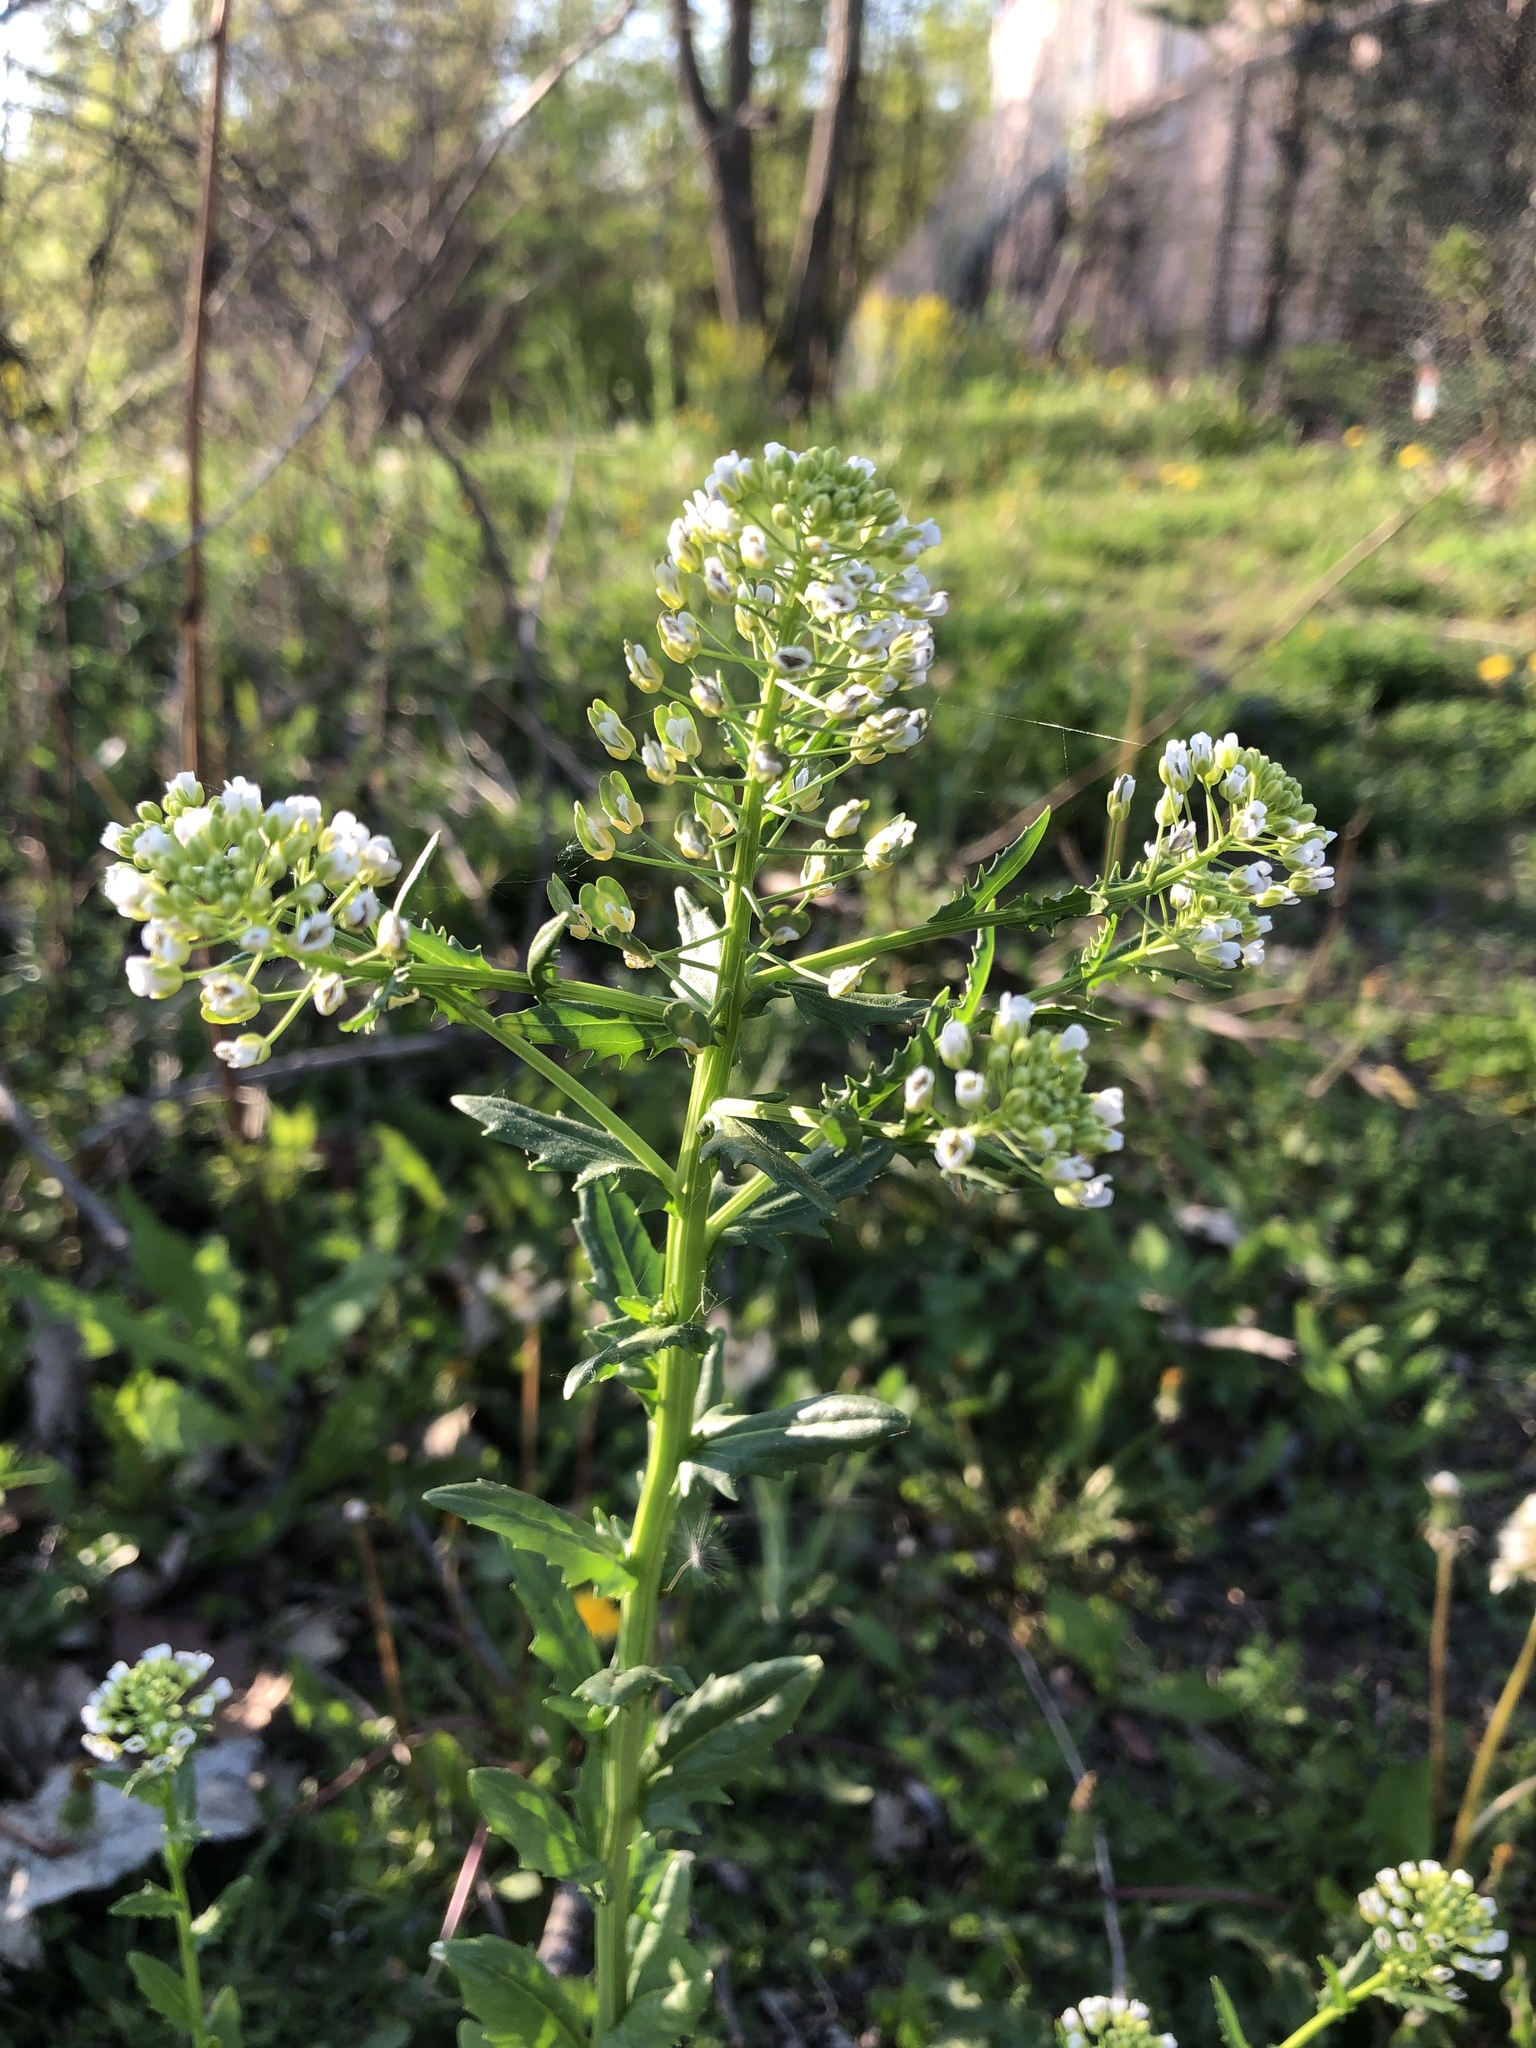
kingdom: Plantae
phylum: Tracheophyta
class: Magnoliopsida
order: Brassicales
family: Brassicaceae
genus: Thlaspi
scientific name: Thlaspi arvense
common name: Field pennycress
